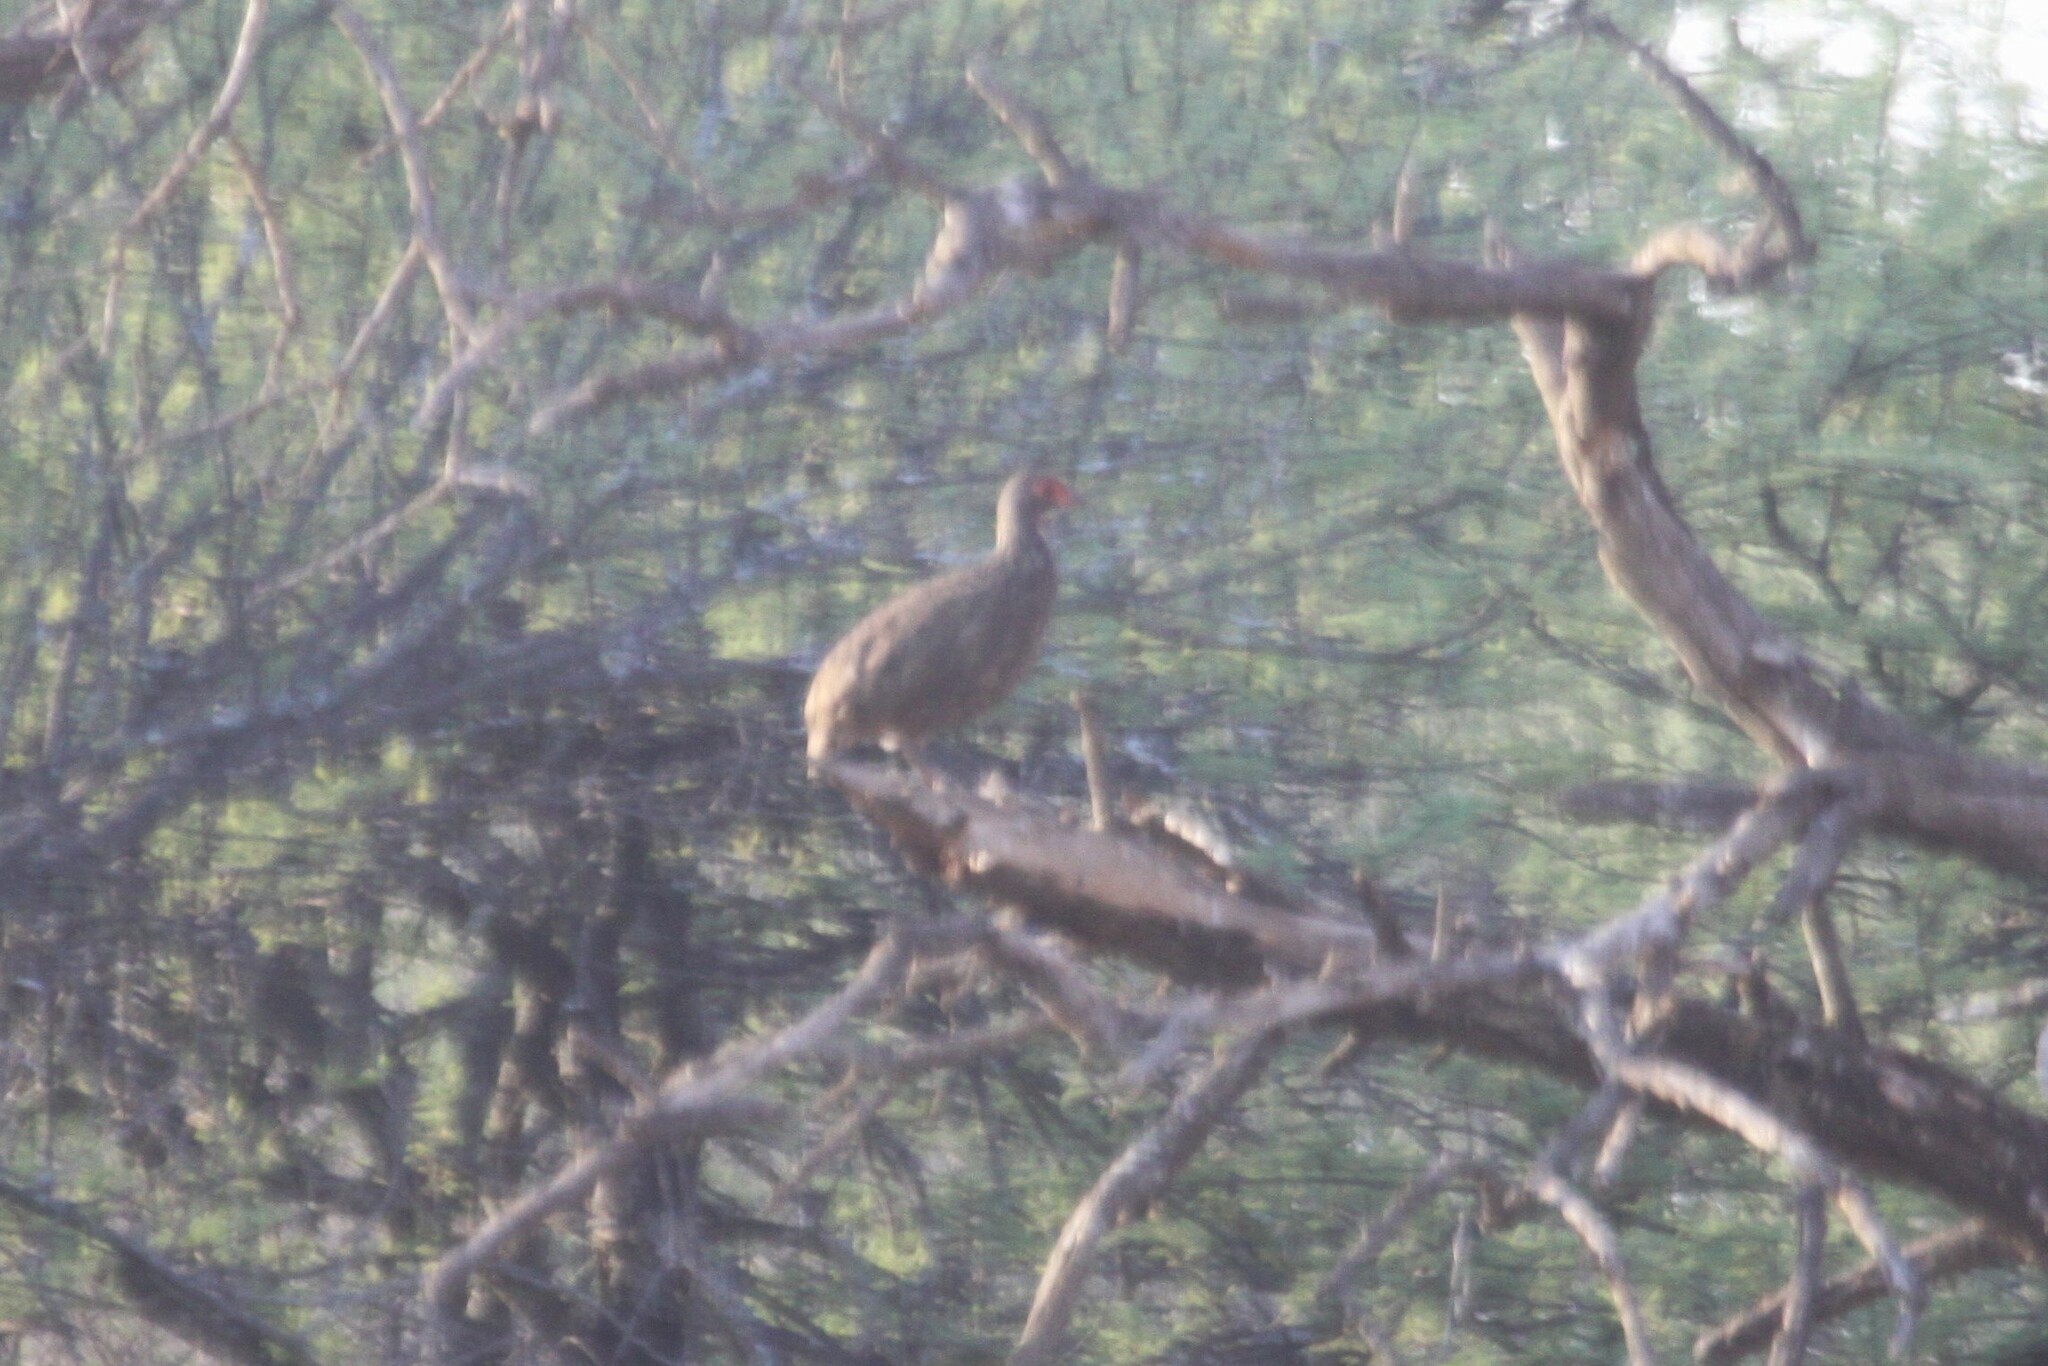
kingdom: Animalia
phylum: Chordata
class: Aves
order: Galliformes
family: Phasianidae
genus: Pternistis
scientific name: Pternistis swainsonii
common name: Swainson's spurfowl
